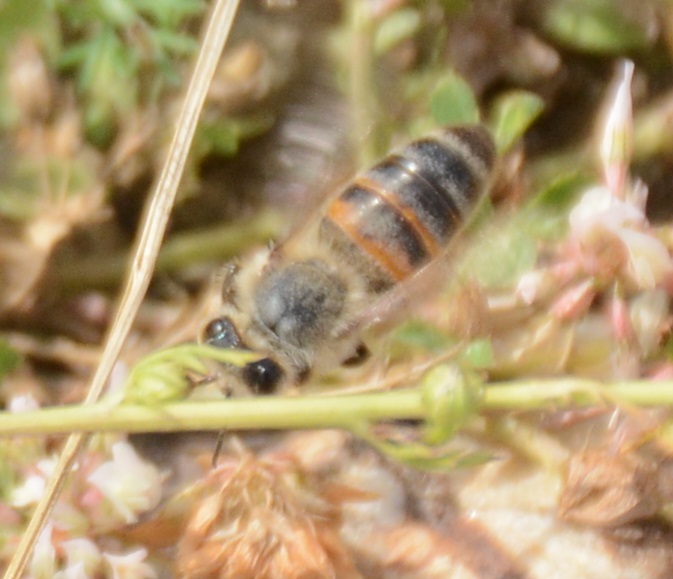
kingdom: Animalia
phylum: Arthropoda
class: Insecta
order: Hymenoptera
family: Apidae
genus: Apis
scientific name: Apis mellifera
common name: Honey bee
